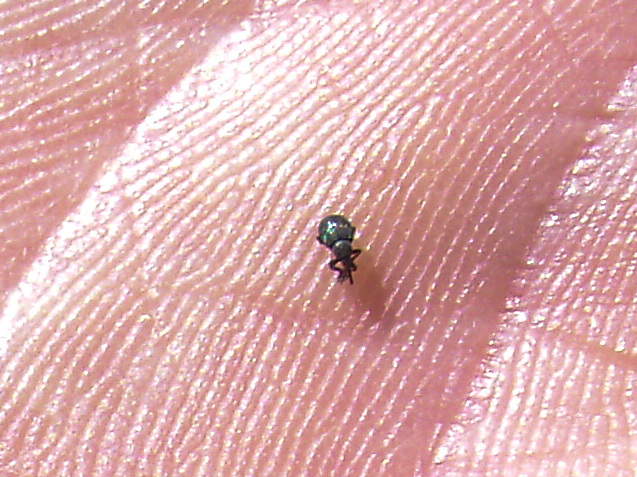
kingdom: Animalia
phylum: Arthropoda
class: Insecta
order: Coleoptera
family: Brentidae
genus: Omphalapion
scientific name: Omphalapion hookerorum
